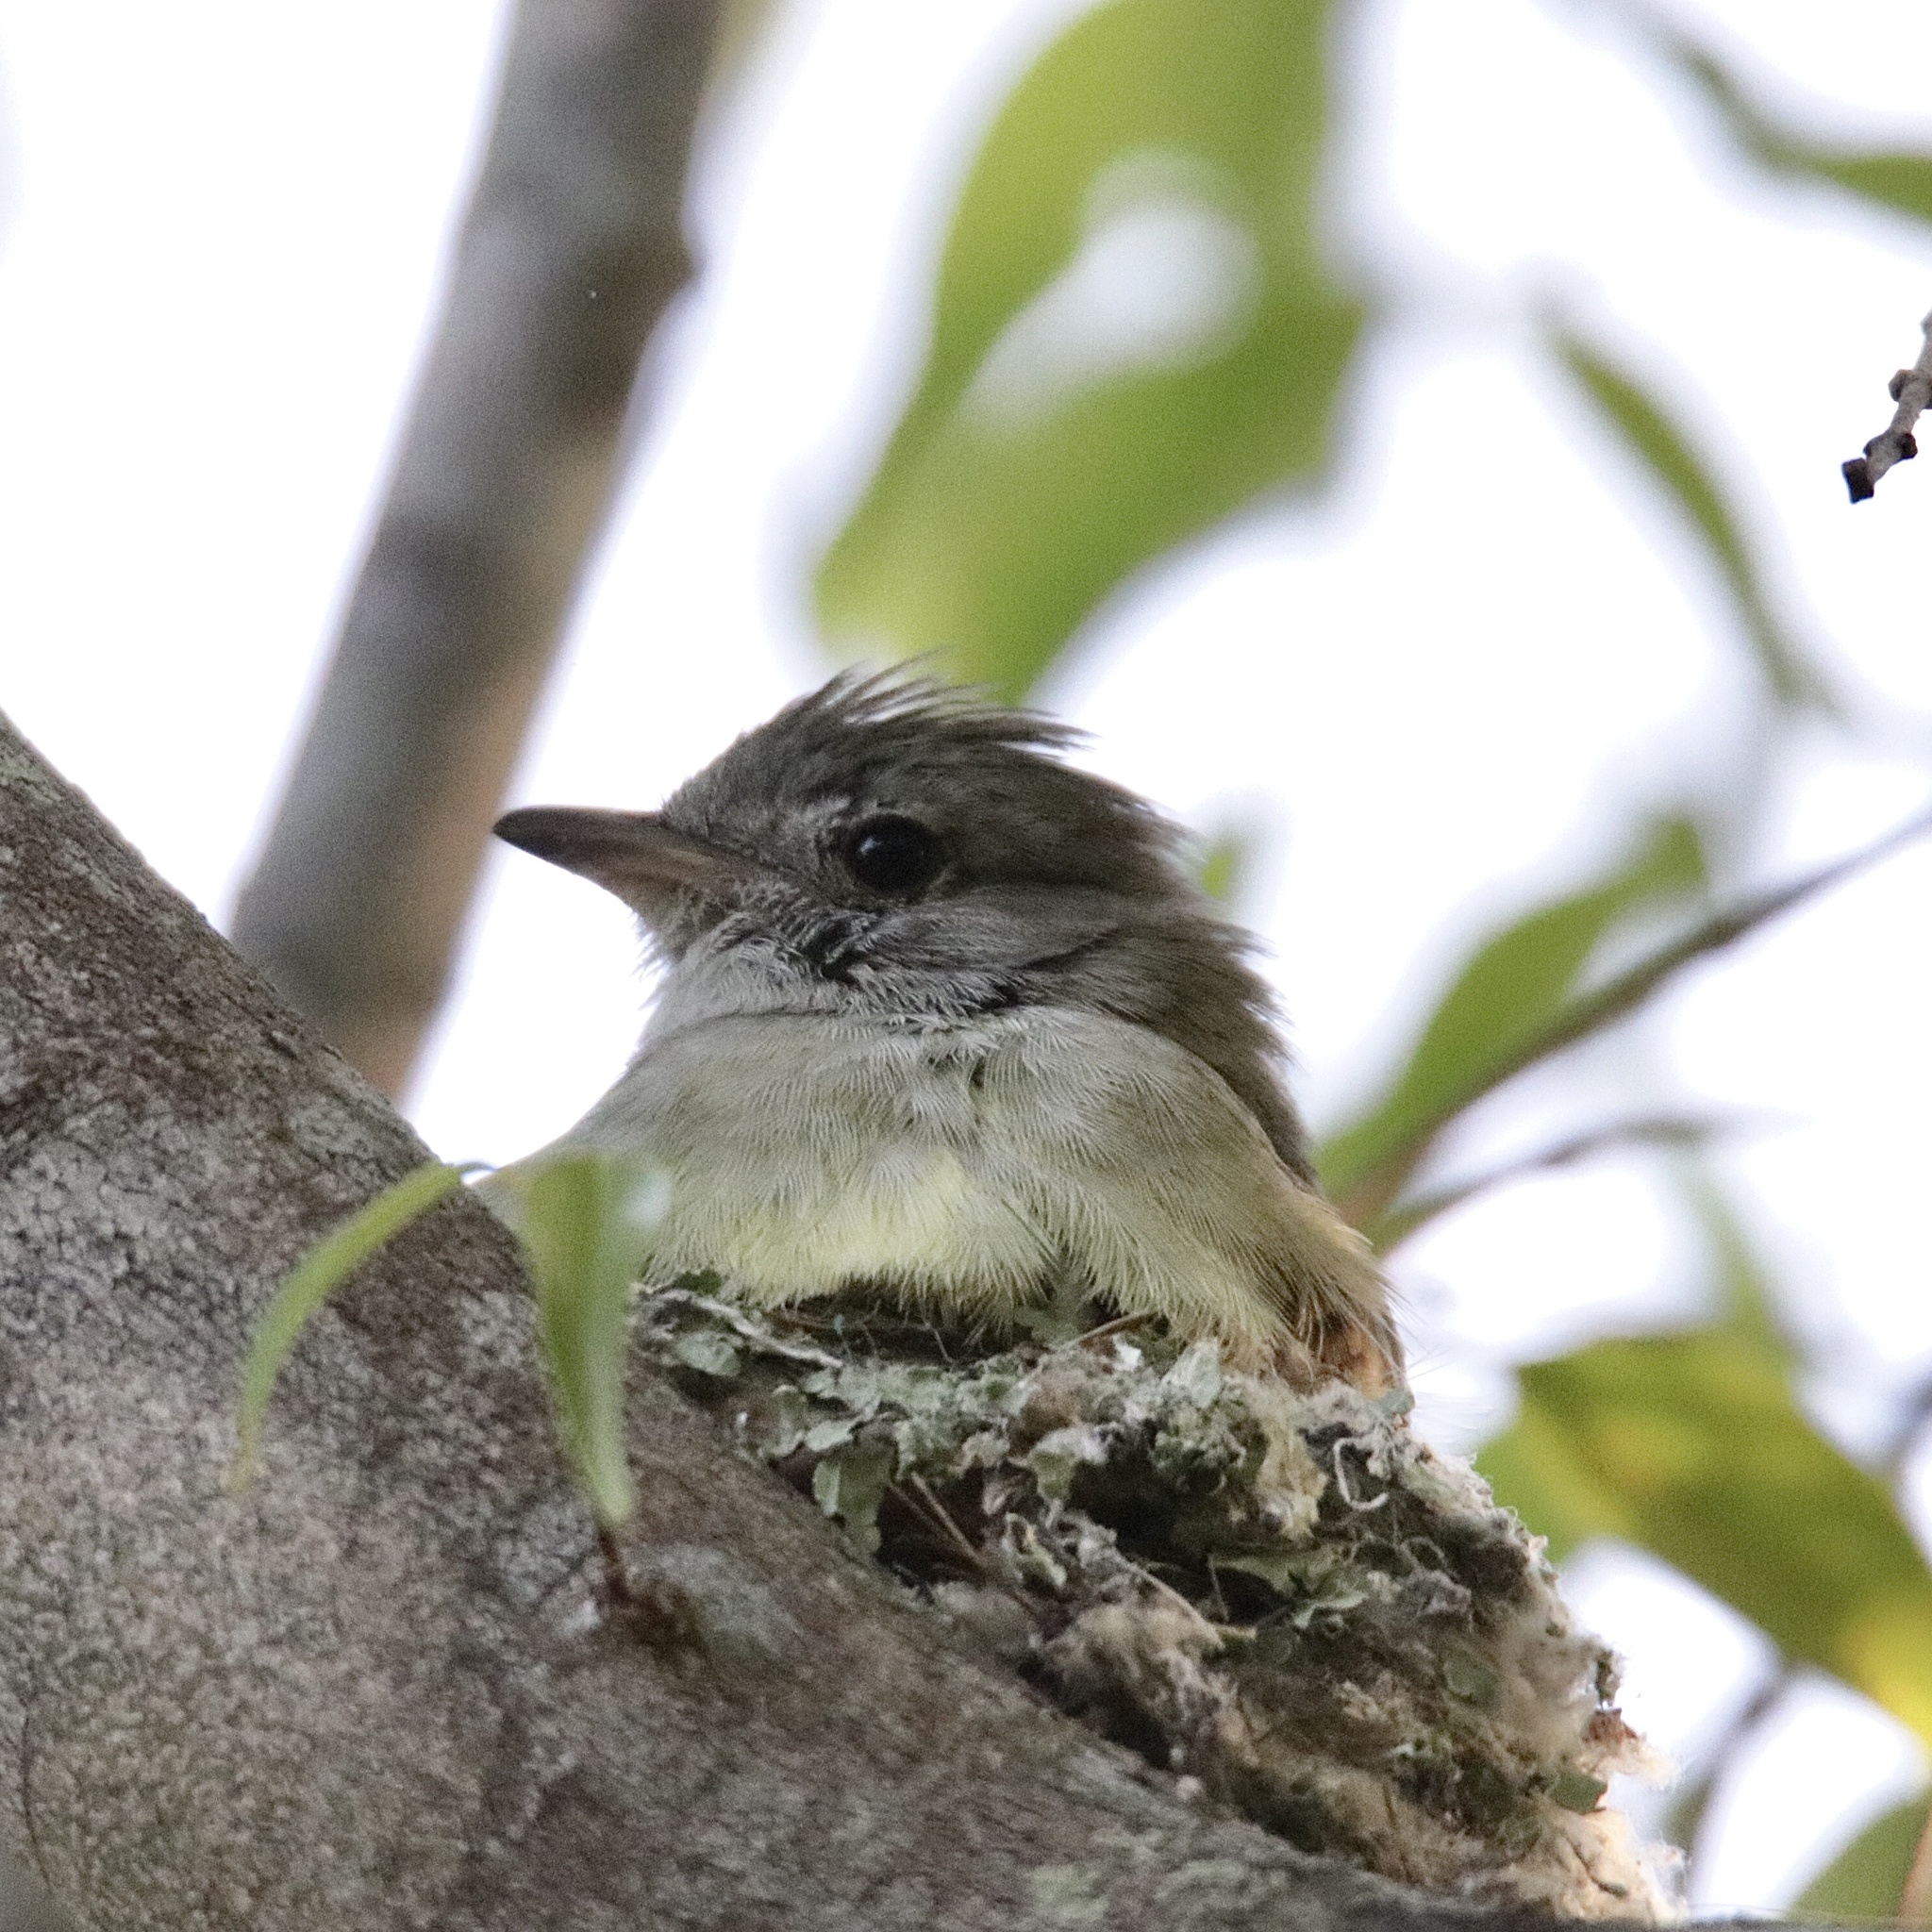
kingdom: Animalia
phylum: Chordata
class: Aves
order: Passeriformes
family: Tyrannidae
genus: Elaenia
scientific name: Elaenia flavogaster
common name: Yellow-bellied elaenia
